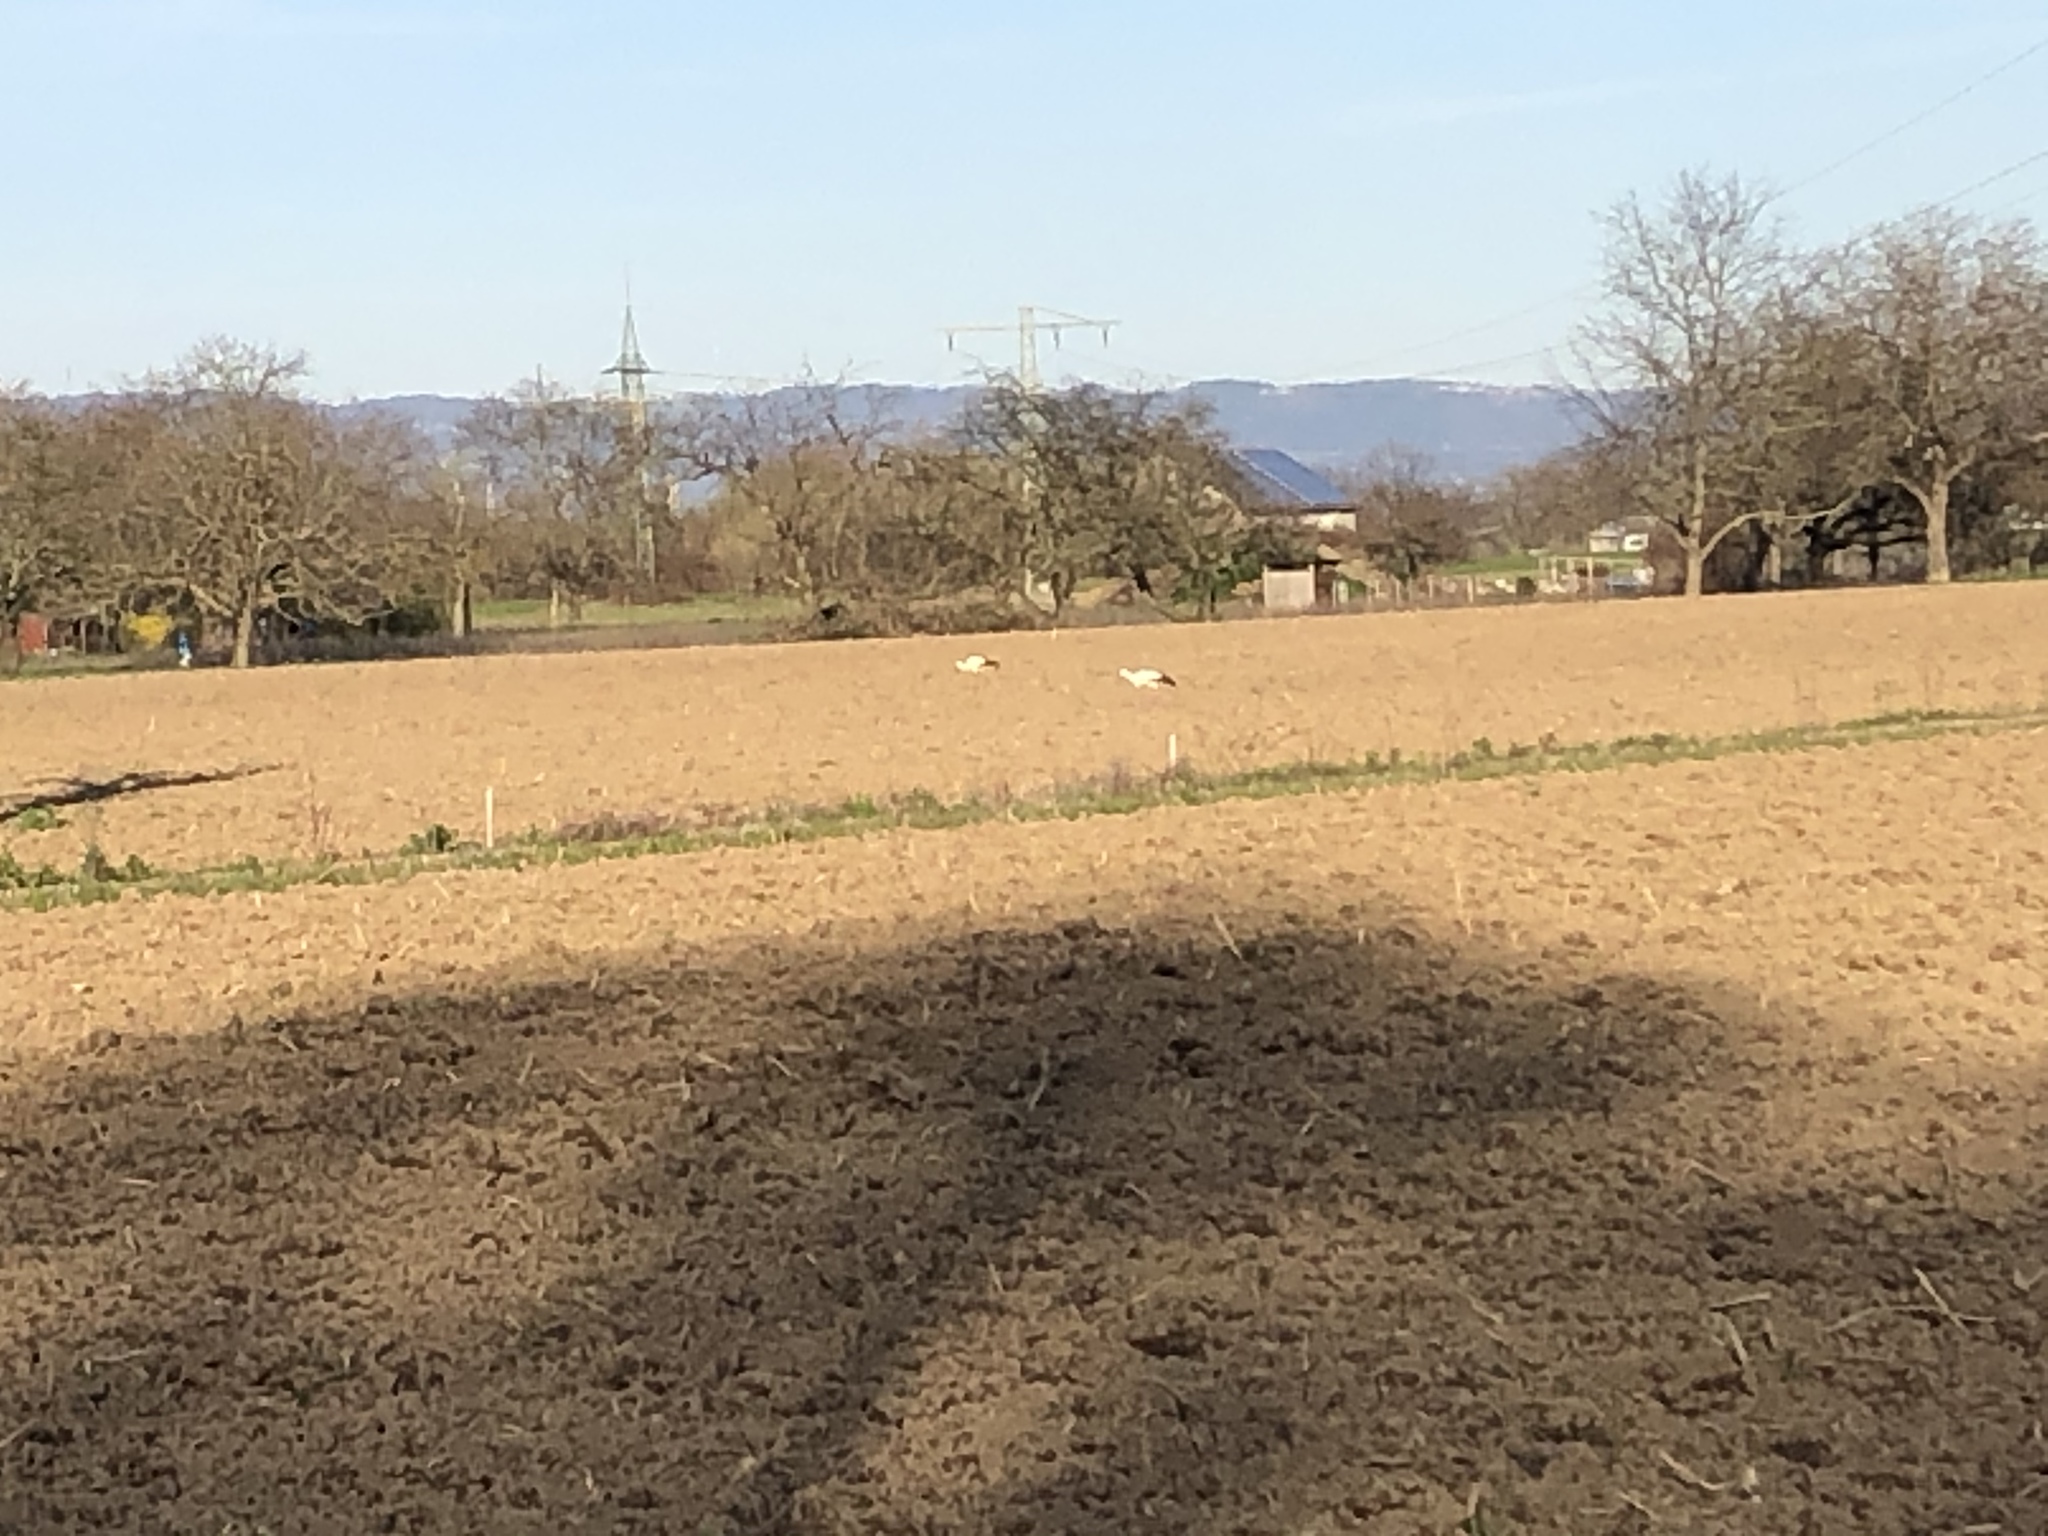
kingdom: Animalia
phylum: Chordata
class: Aves
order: Ciconiiformes
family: Ciconiidae
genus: Ciconia
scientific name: Ciconia ciconia
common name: White stork
